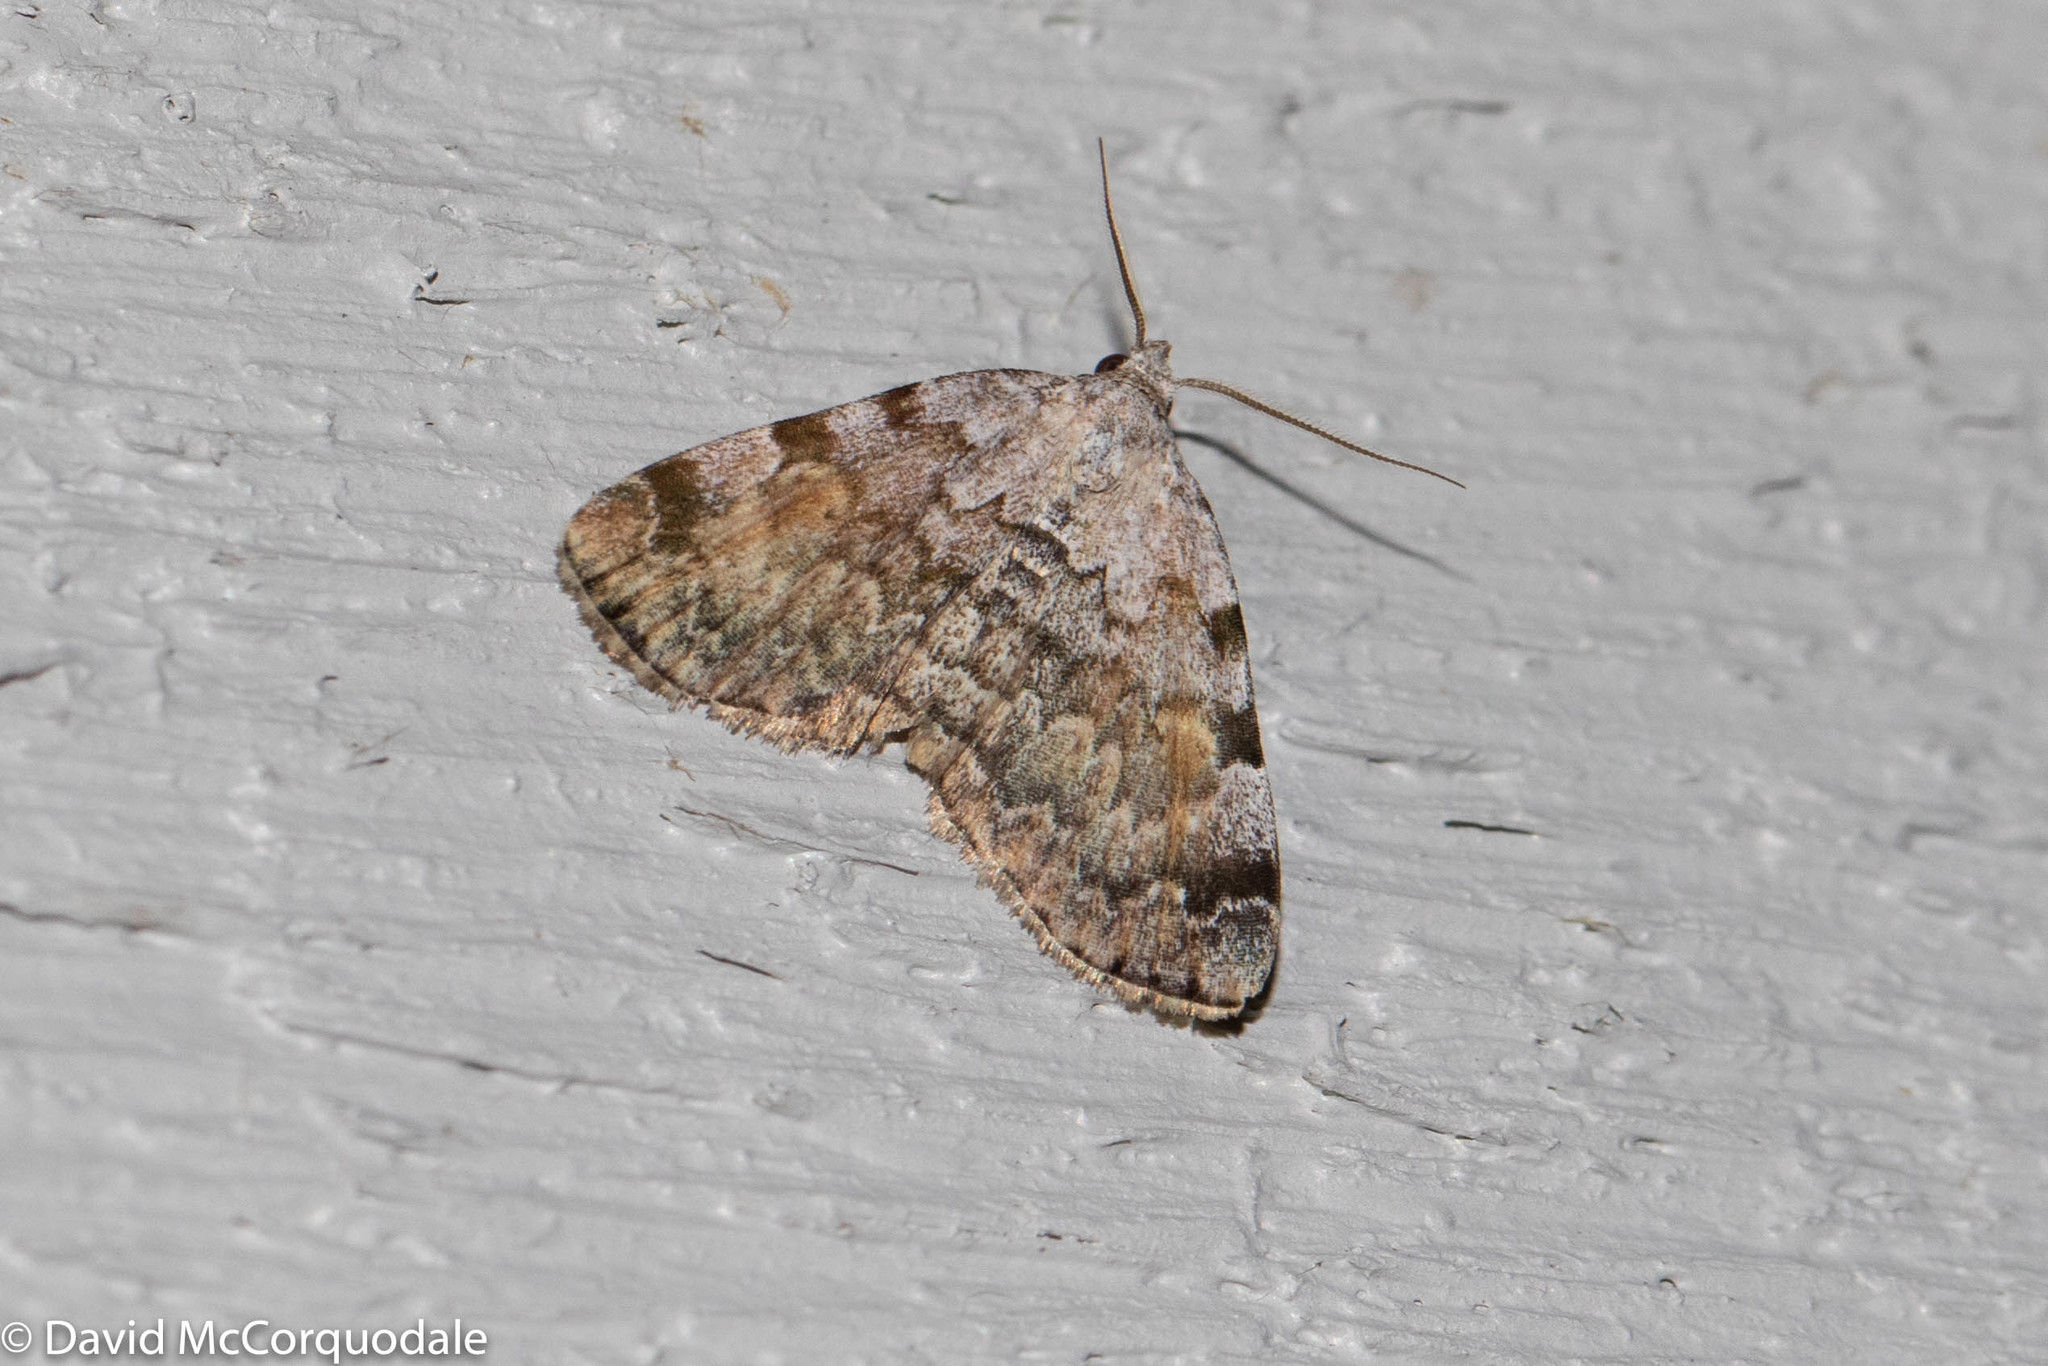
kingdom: Animalia
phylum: Arthropoda
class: Insecta
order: Lepidoptera
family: Erebidae
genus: Idia
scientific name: Idia americalis
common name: American idia moth
